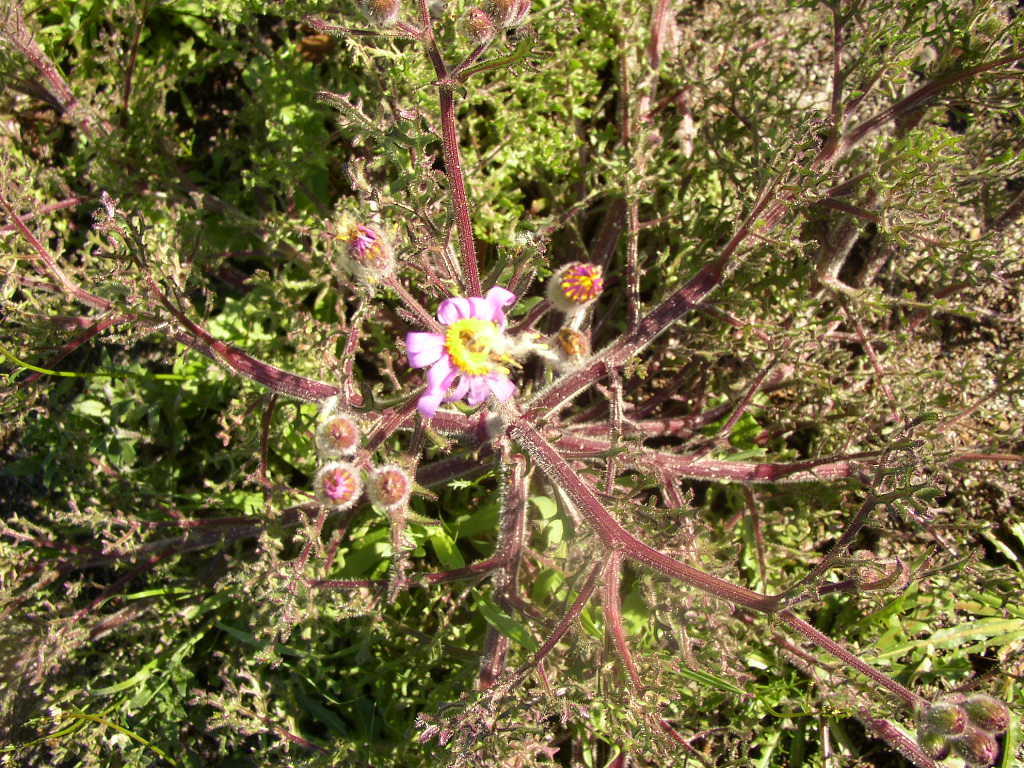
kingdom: Plantae
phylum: Tracheophyta
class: Magnoliopsida
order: Asterales
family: Asteraceae
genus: Senecio
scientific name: Senecio arenarius
